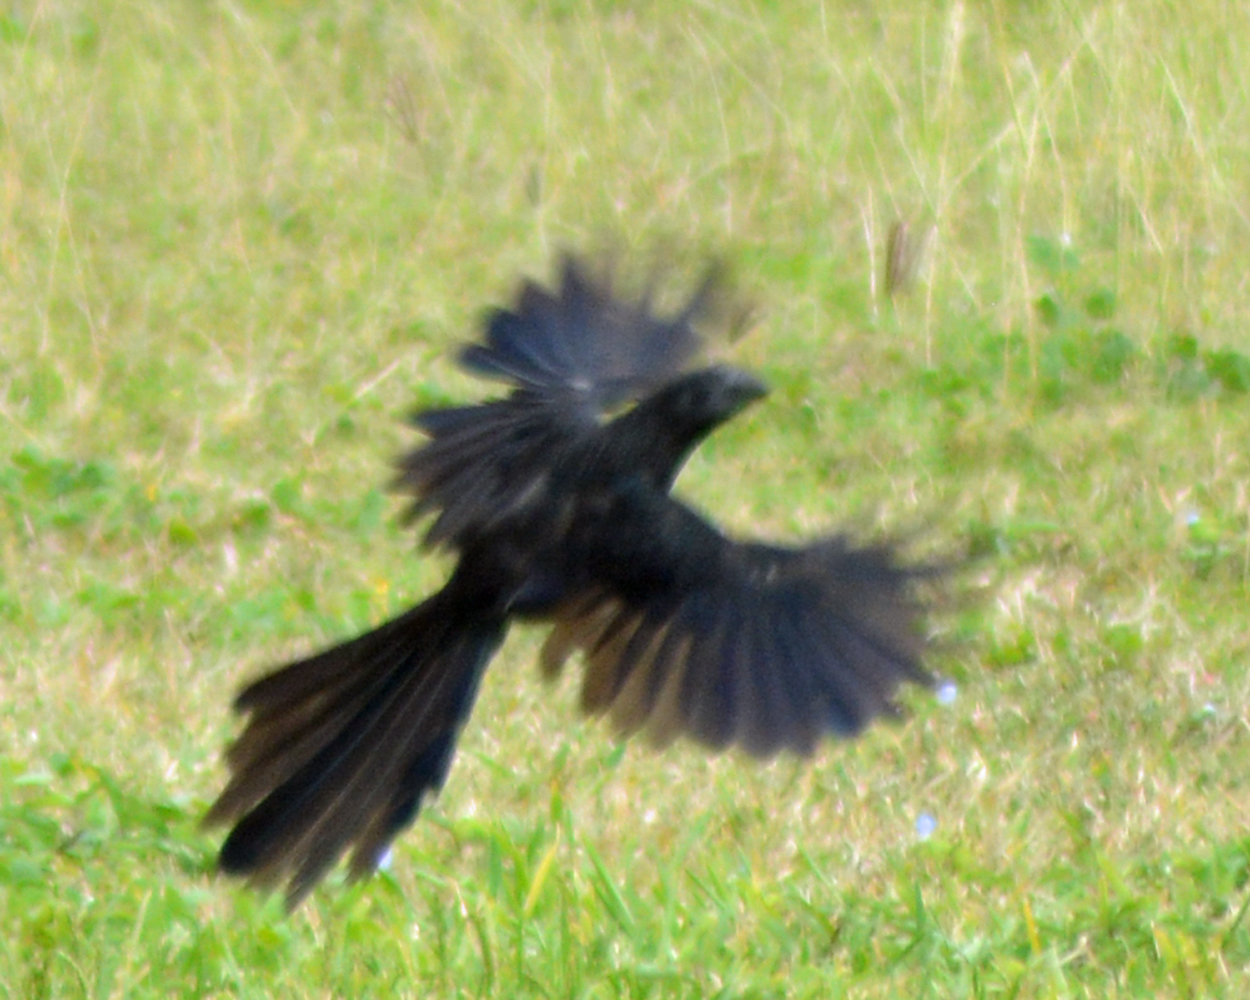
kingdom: Animalia
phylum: Chordata
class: Aves
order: Cuculiformes
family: Cuculidae
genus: Crotophaga
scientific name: Crotophaga ani
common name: Smooth-billed ani
